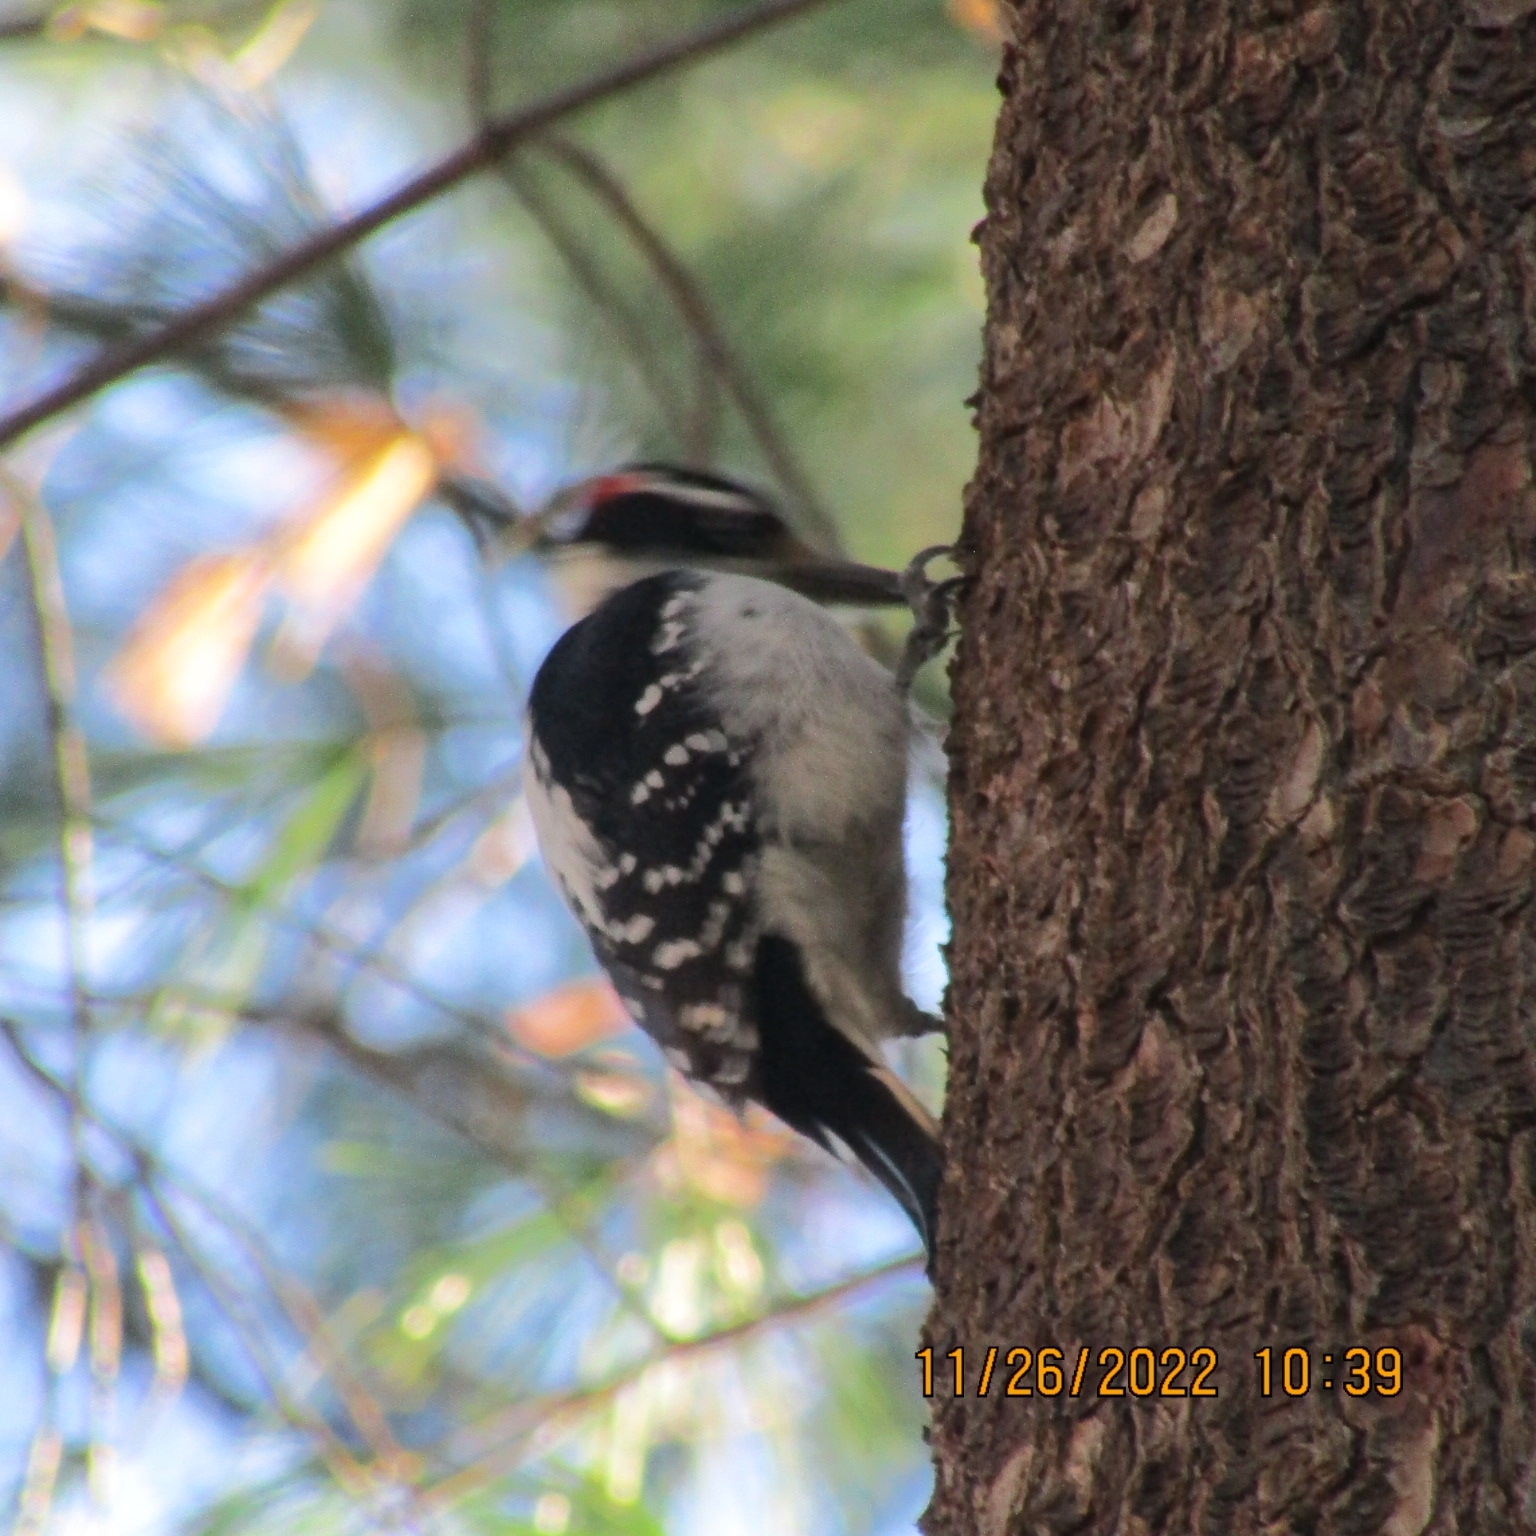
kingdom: Animalia
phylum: Chordata
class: Aves
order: Piciformes
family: Picidae
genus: Leuconotopicus
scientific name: Leuconotopicus villosus
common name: Hairy woodpecker
